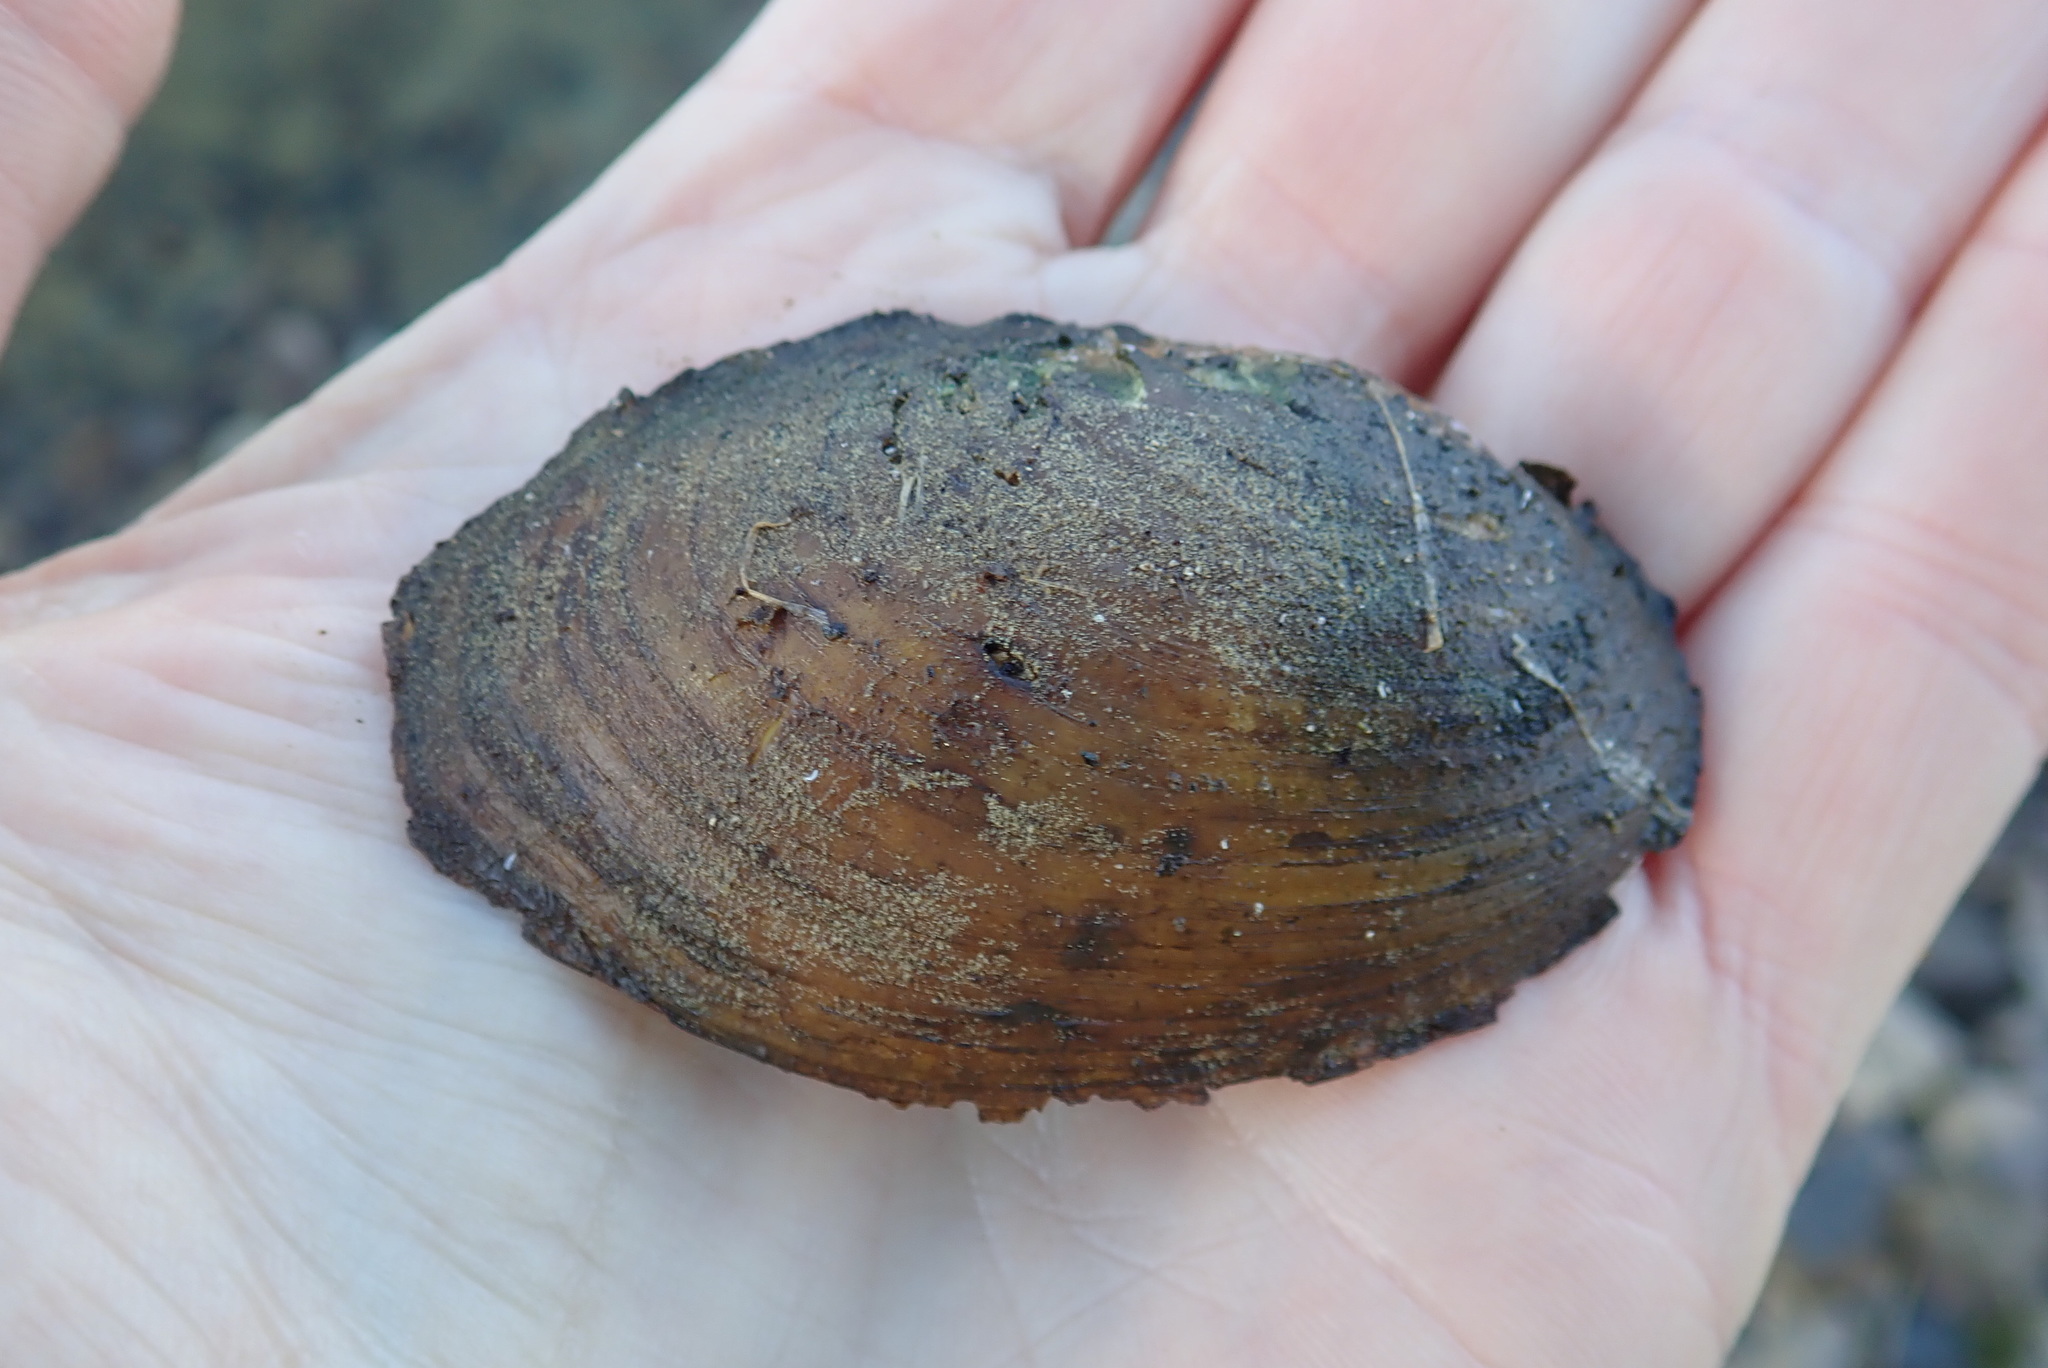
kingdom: Animalia
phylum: Mollusca
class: Bivalvia
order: Unionida
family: Unionidae
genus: Lampsilis
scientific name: Lampsilis siliquoidea
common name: Fatmucket
